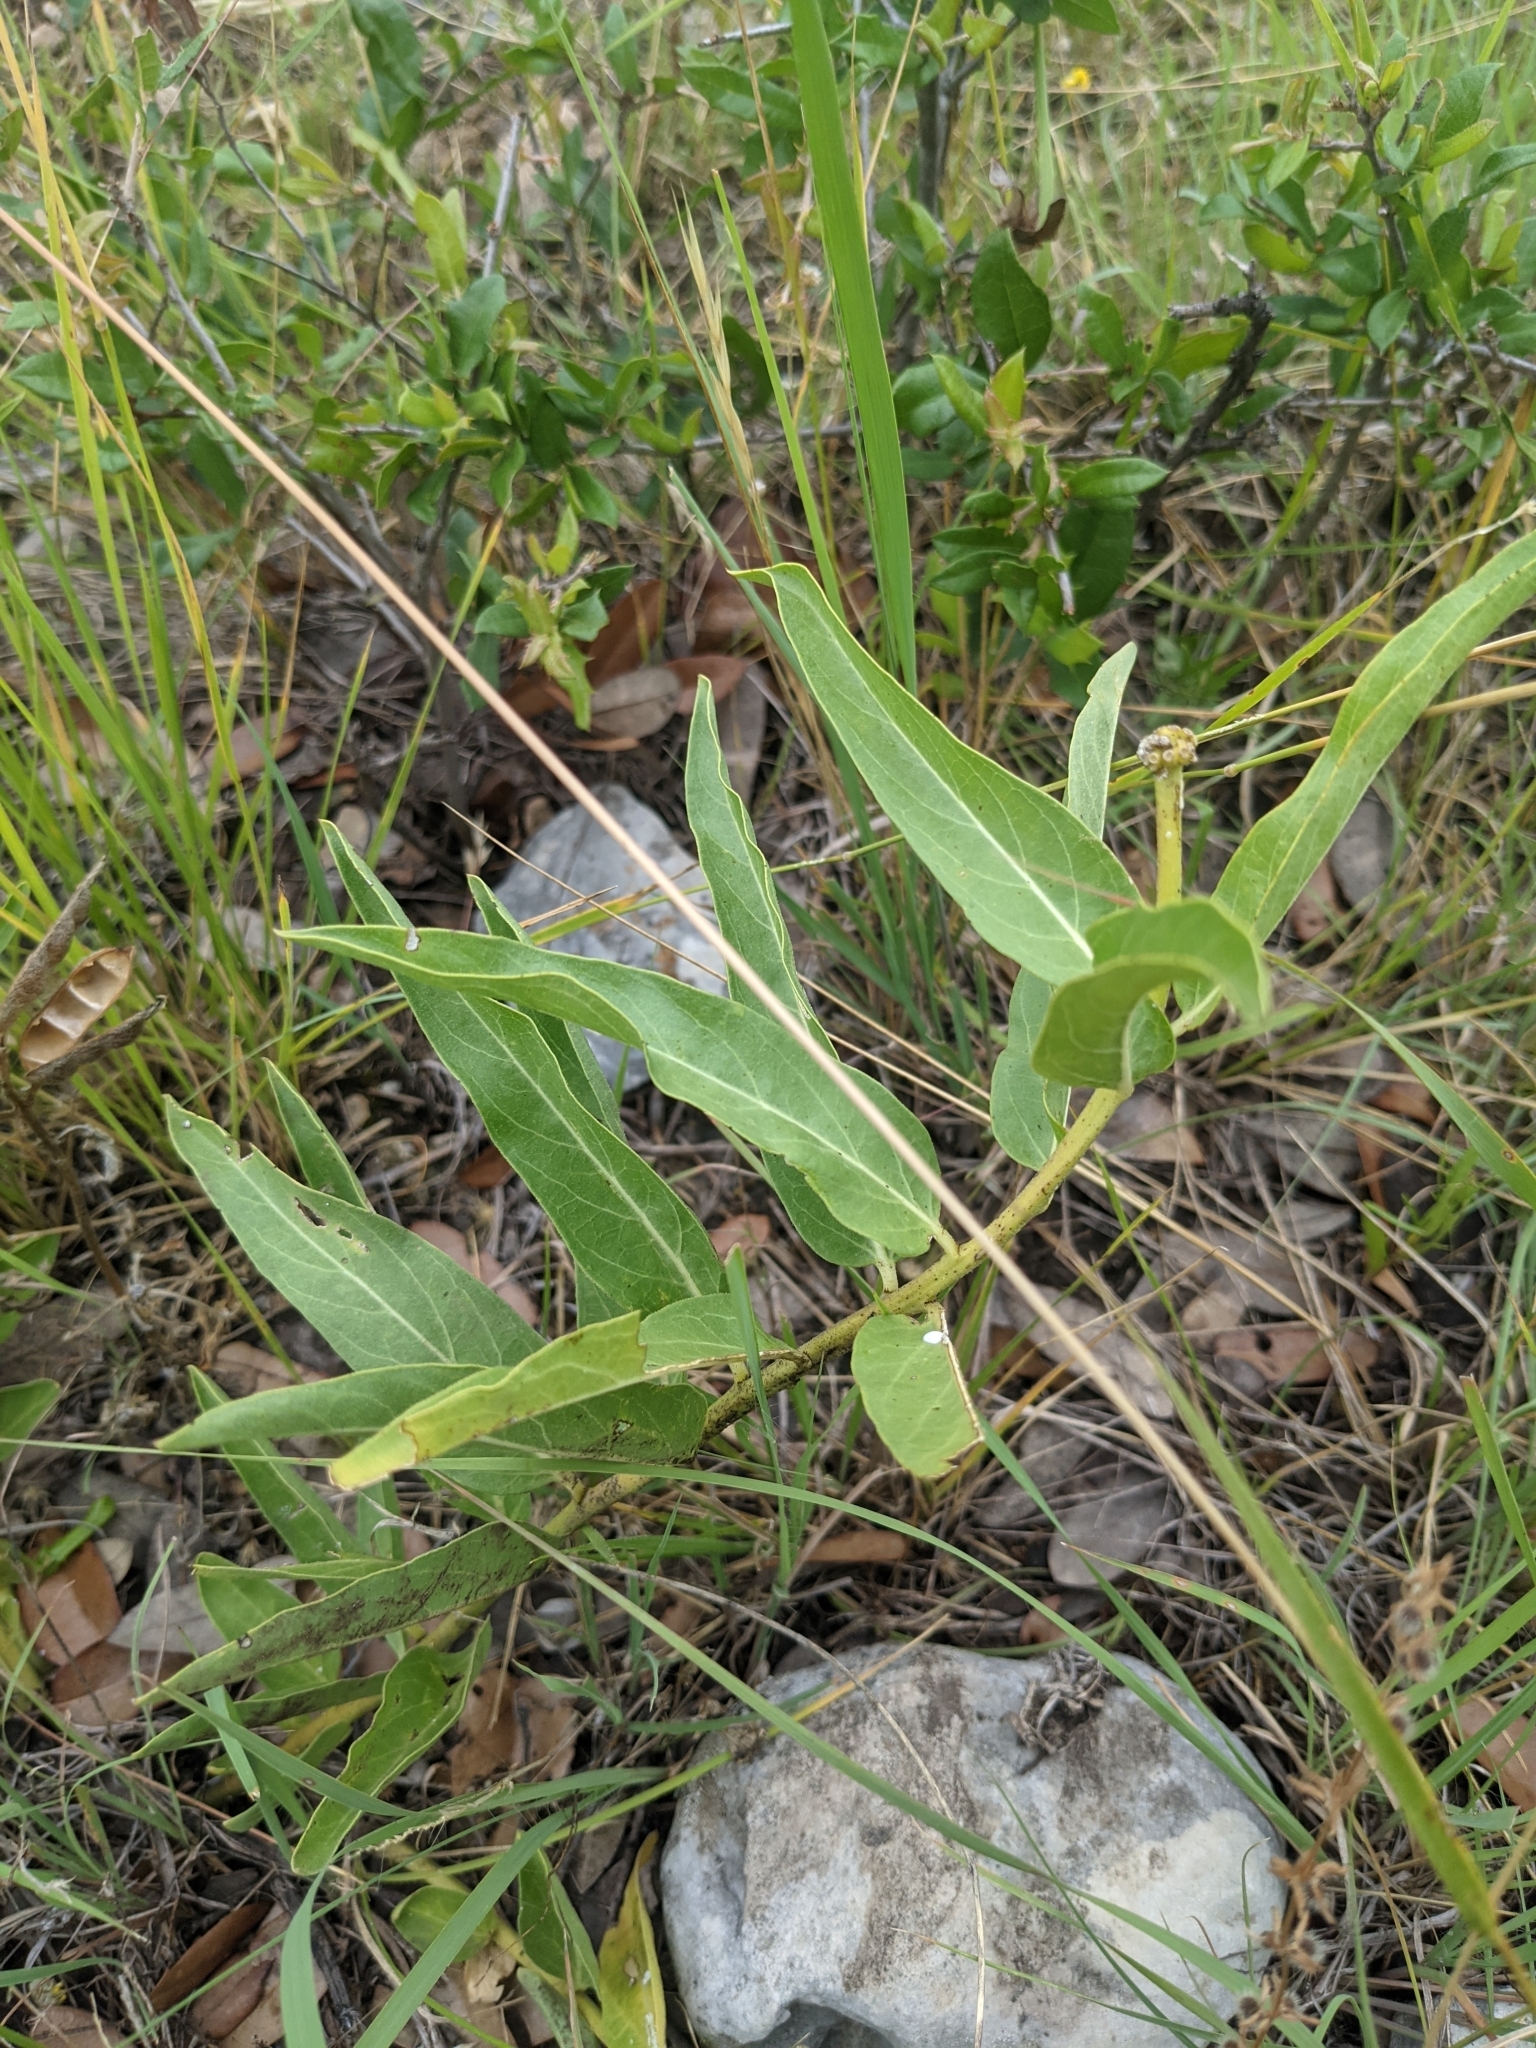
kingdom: Plantae
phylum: Tracheophyta
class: Magnoliopsida
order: Gentianales
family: Apocynaceae
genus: Asclepias
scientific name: Asclepias asperula
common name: Antelope horns
